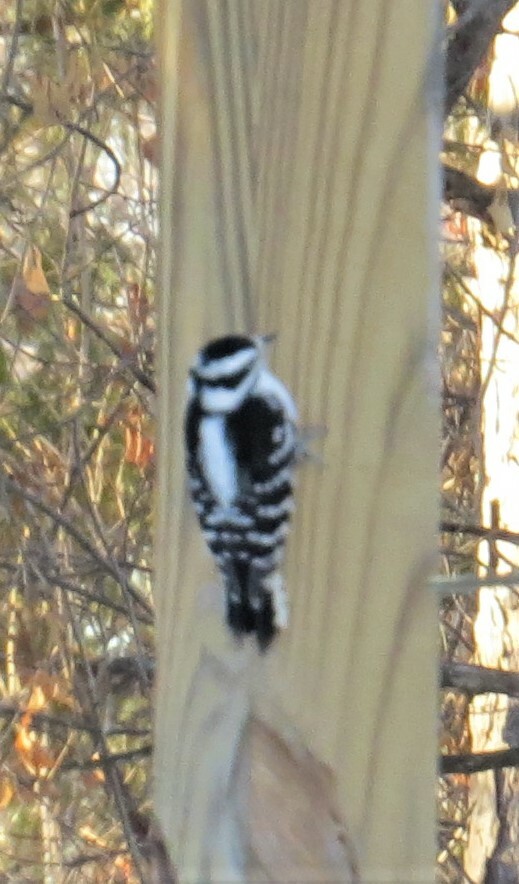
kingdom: Animalia
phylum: Chordata
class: Aves
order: Piciformes
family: Picidae
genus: Dryobates
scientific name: Dryobates pubescens
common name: Downy woodpecker
